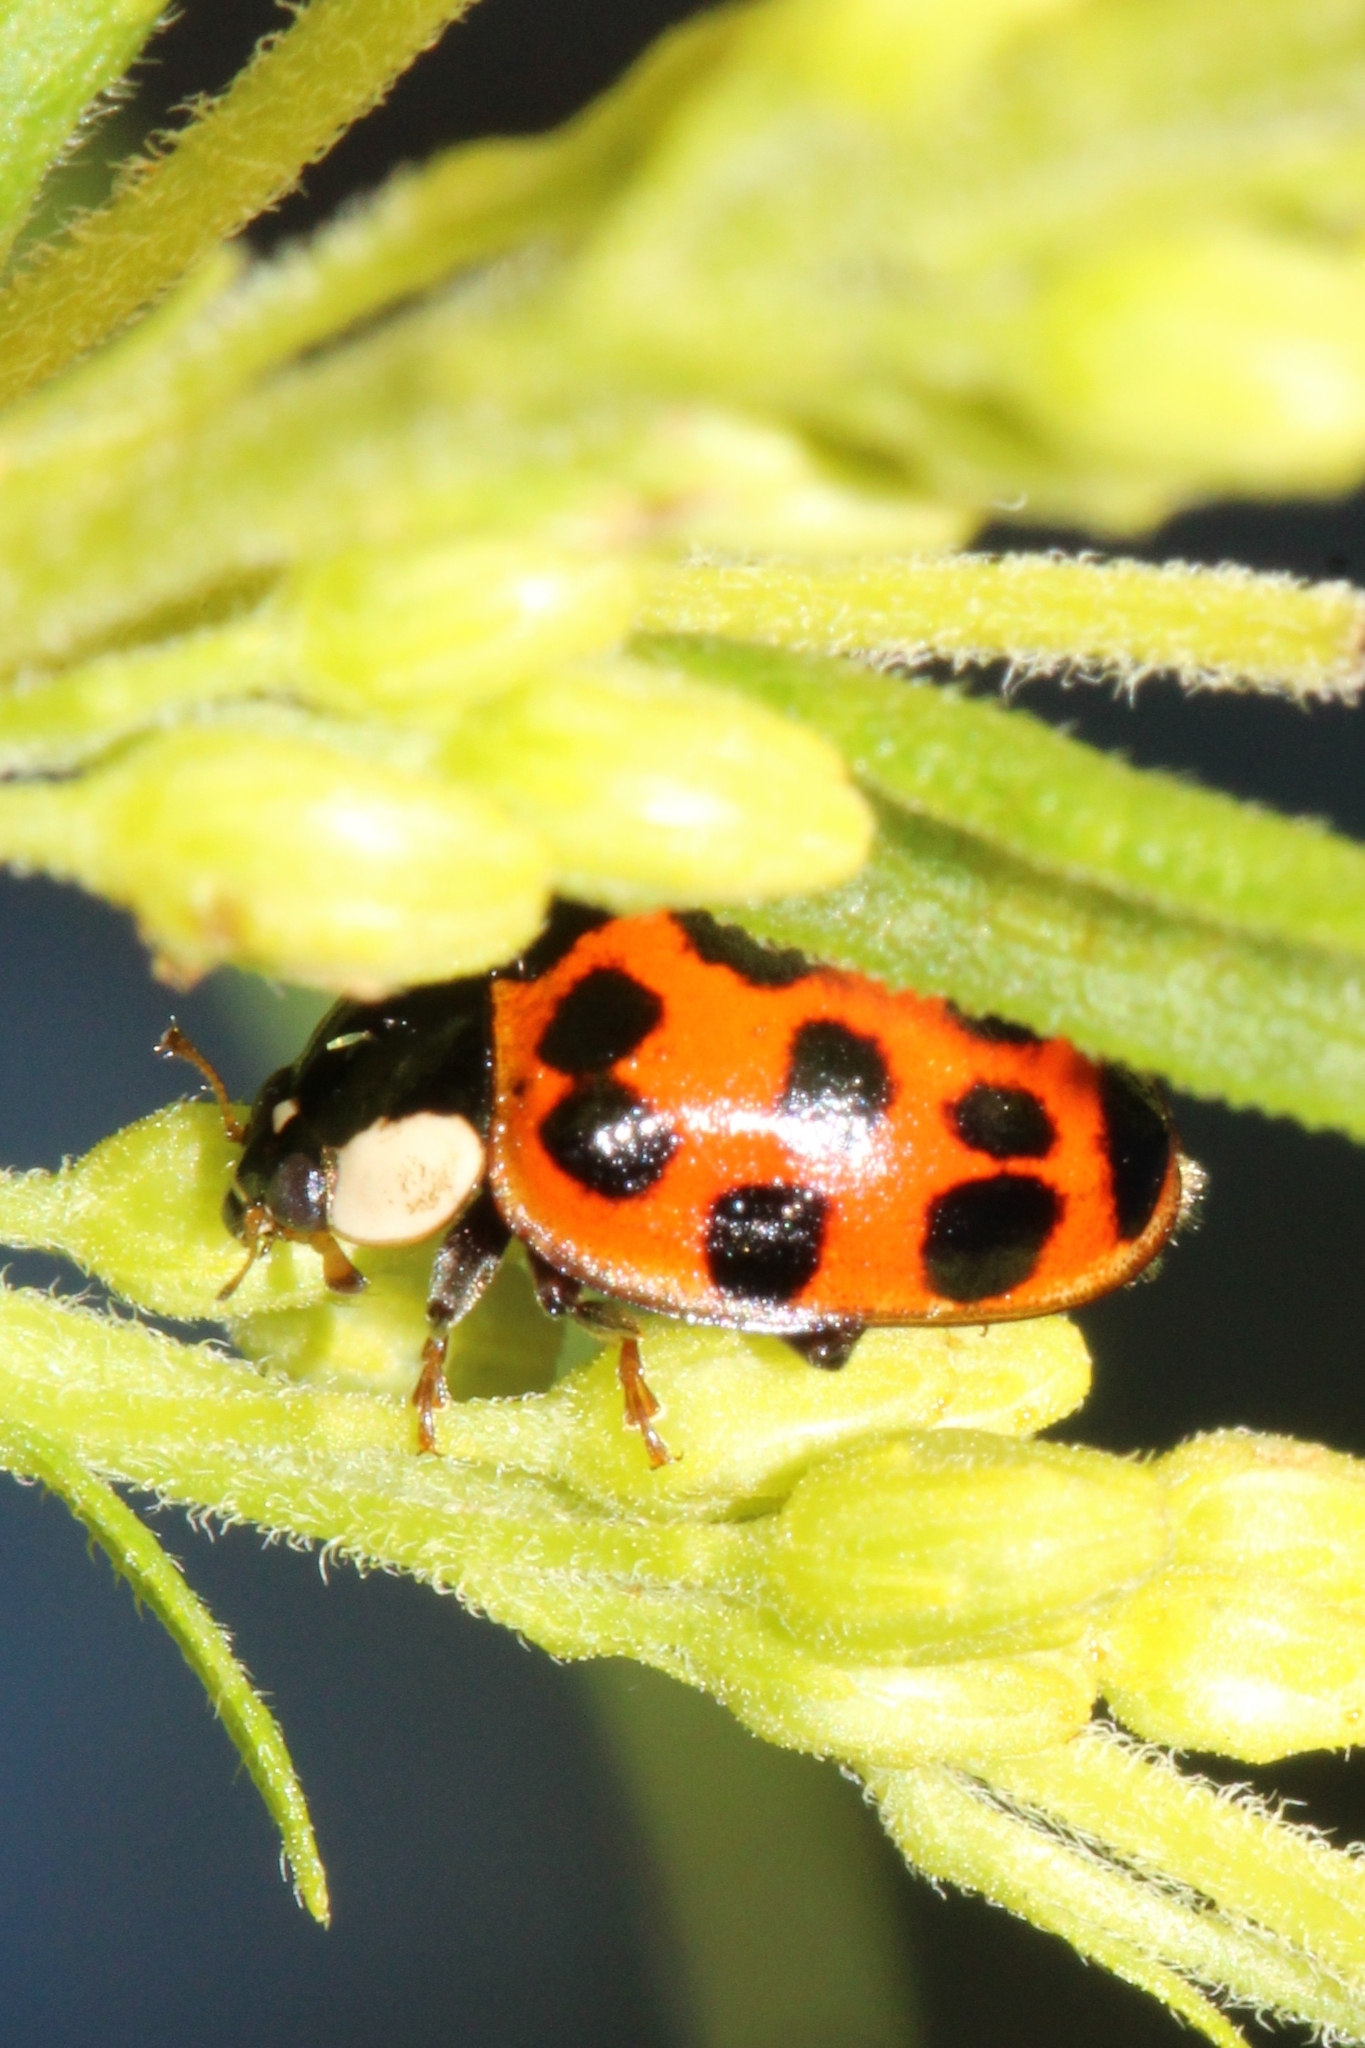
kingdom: Animalia
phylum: Arthropoda
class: Insecta
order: Coleoptera
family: Coccinellidae
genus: Harmonia
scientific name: Harmonia axyridis
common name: Harlequin ladybird
